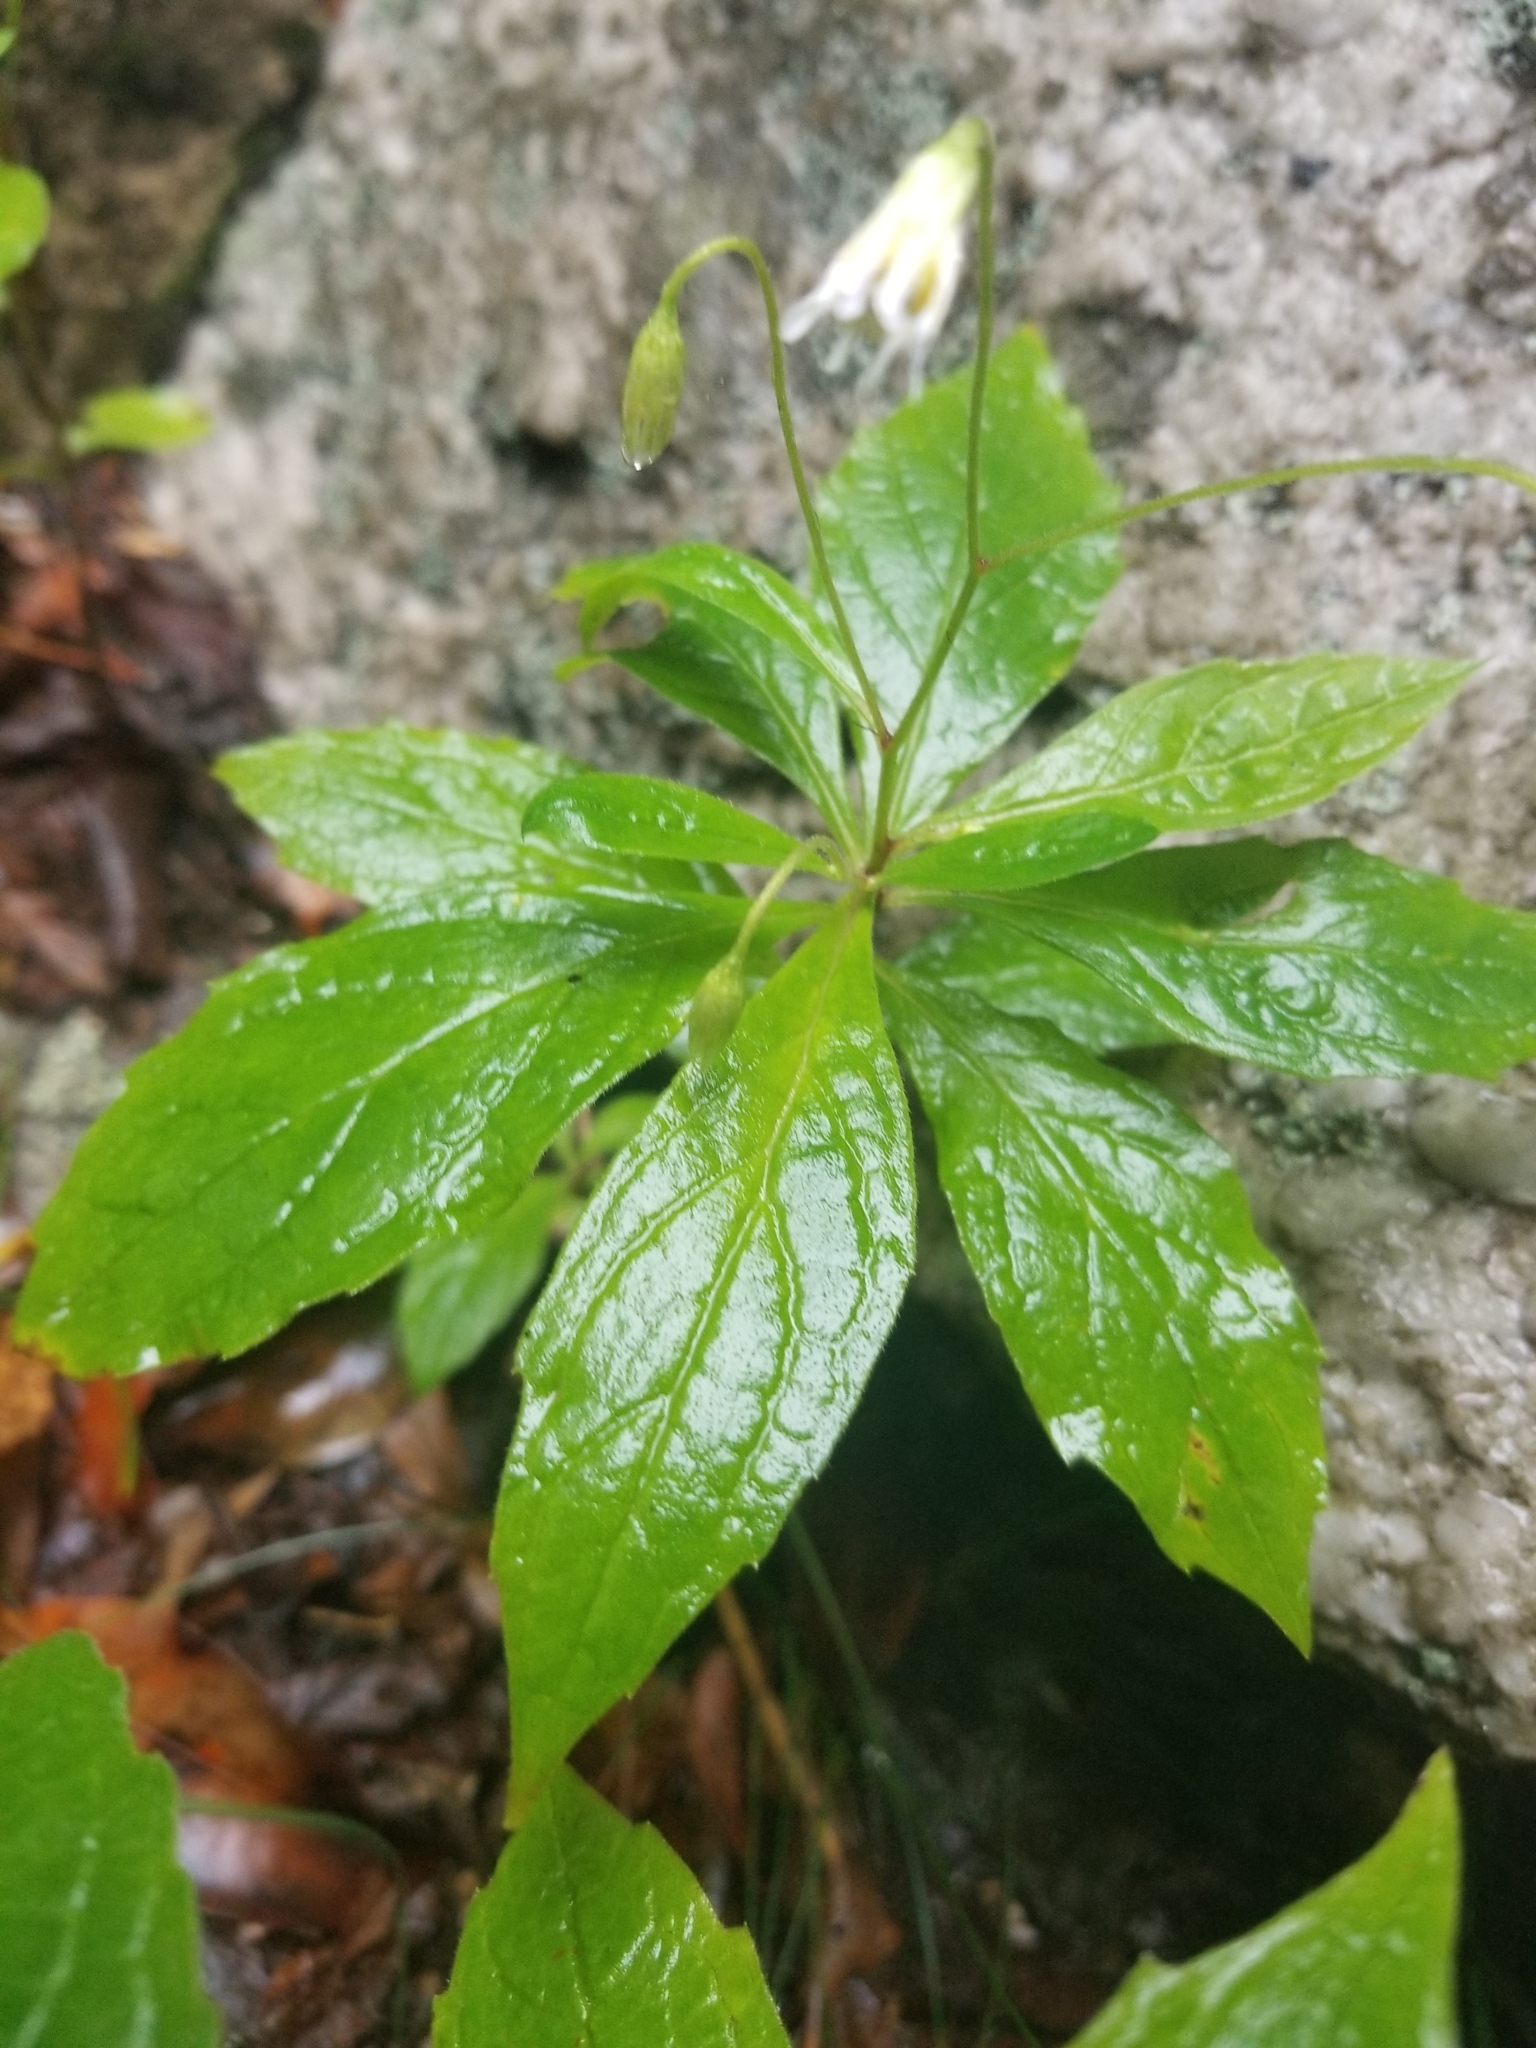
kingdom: Plantae
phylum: Tracheophyta
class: Magnoliopsida
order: Asterales
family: Asteraceae
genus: Oclemena
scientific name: Oclemena acuminata
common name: Mountain aster
